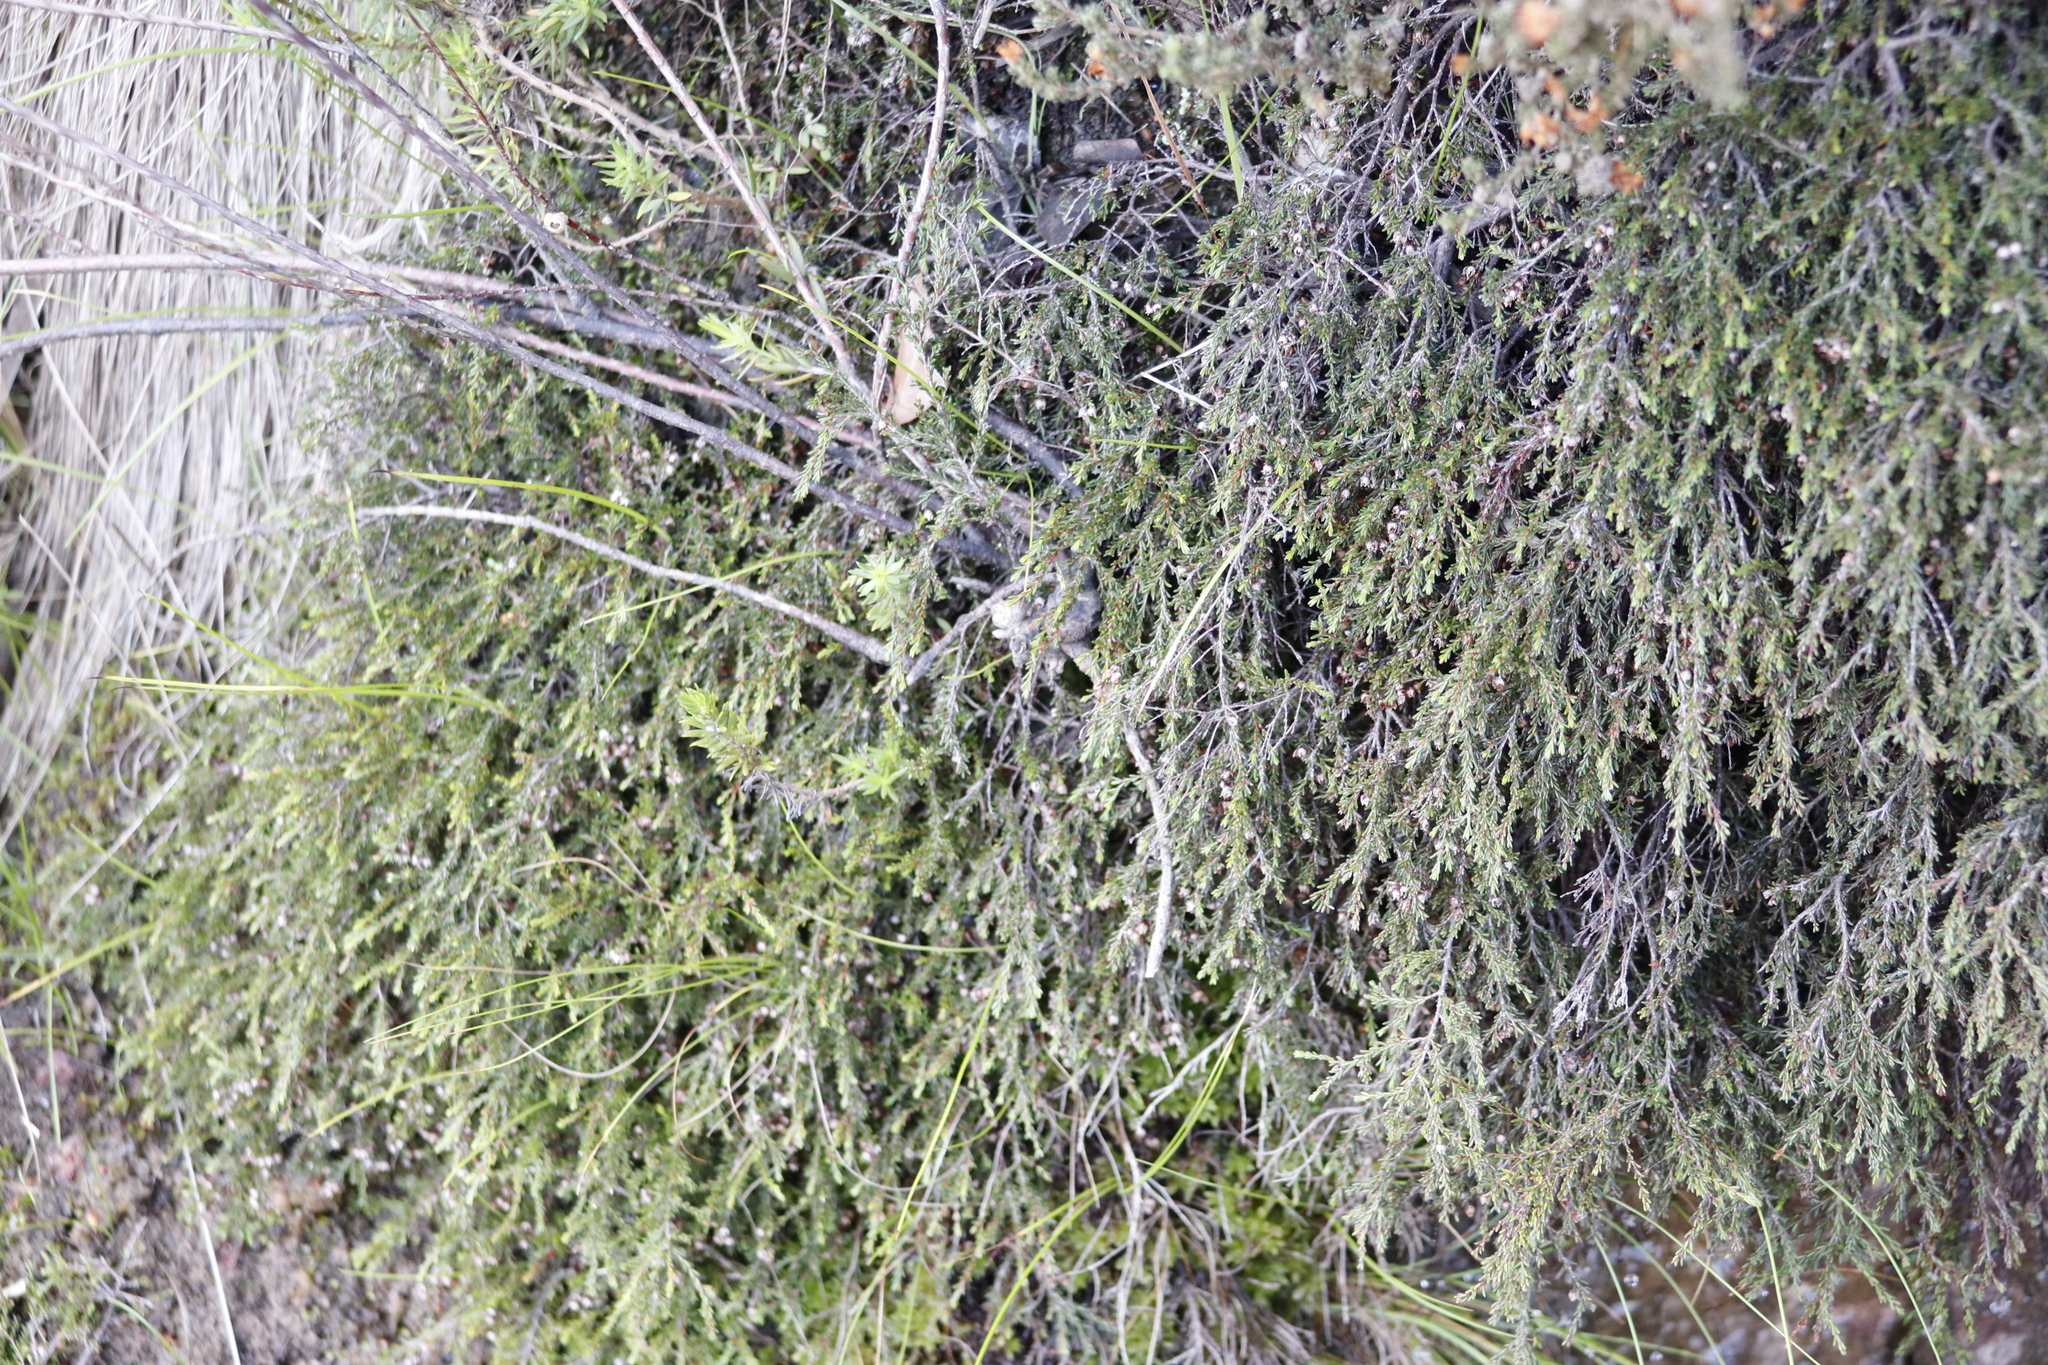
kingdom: Plantae
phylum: Tracheophyta
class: Magnoliopsida
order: Ericales
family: Ericaceae
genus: Erica
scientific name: Erica tenuis
